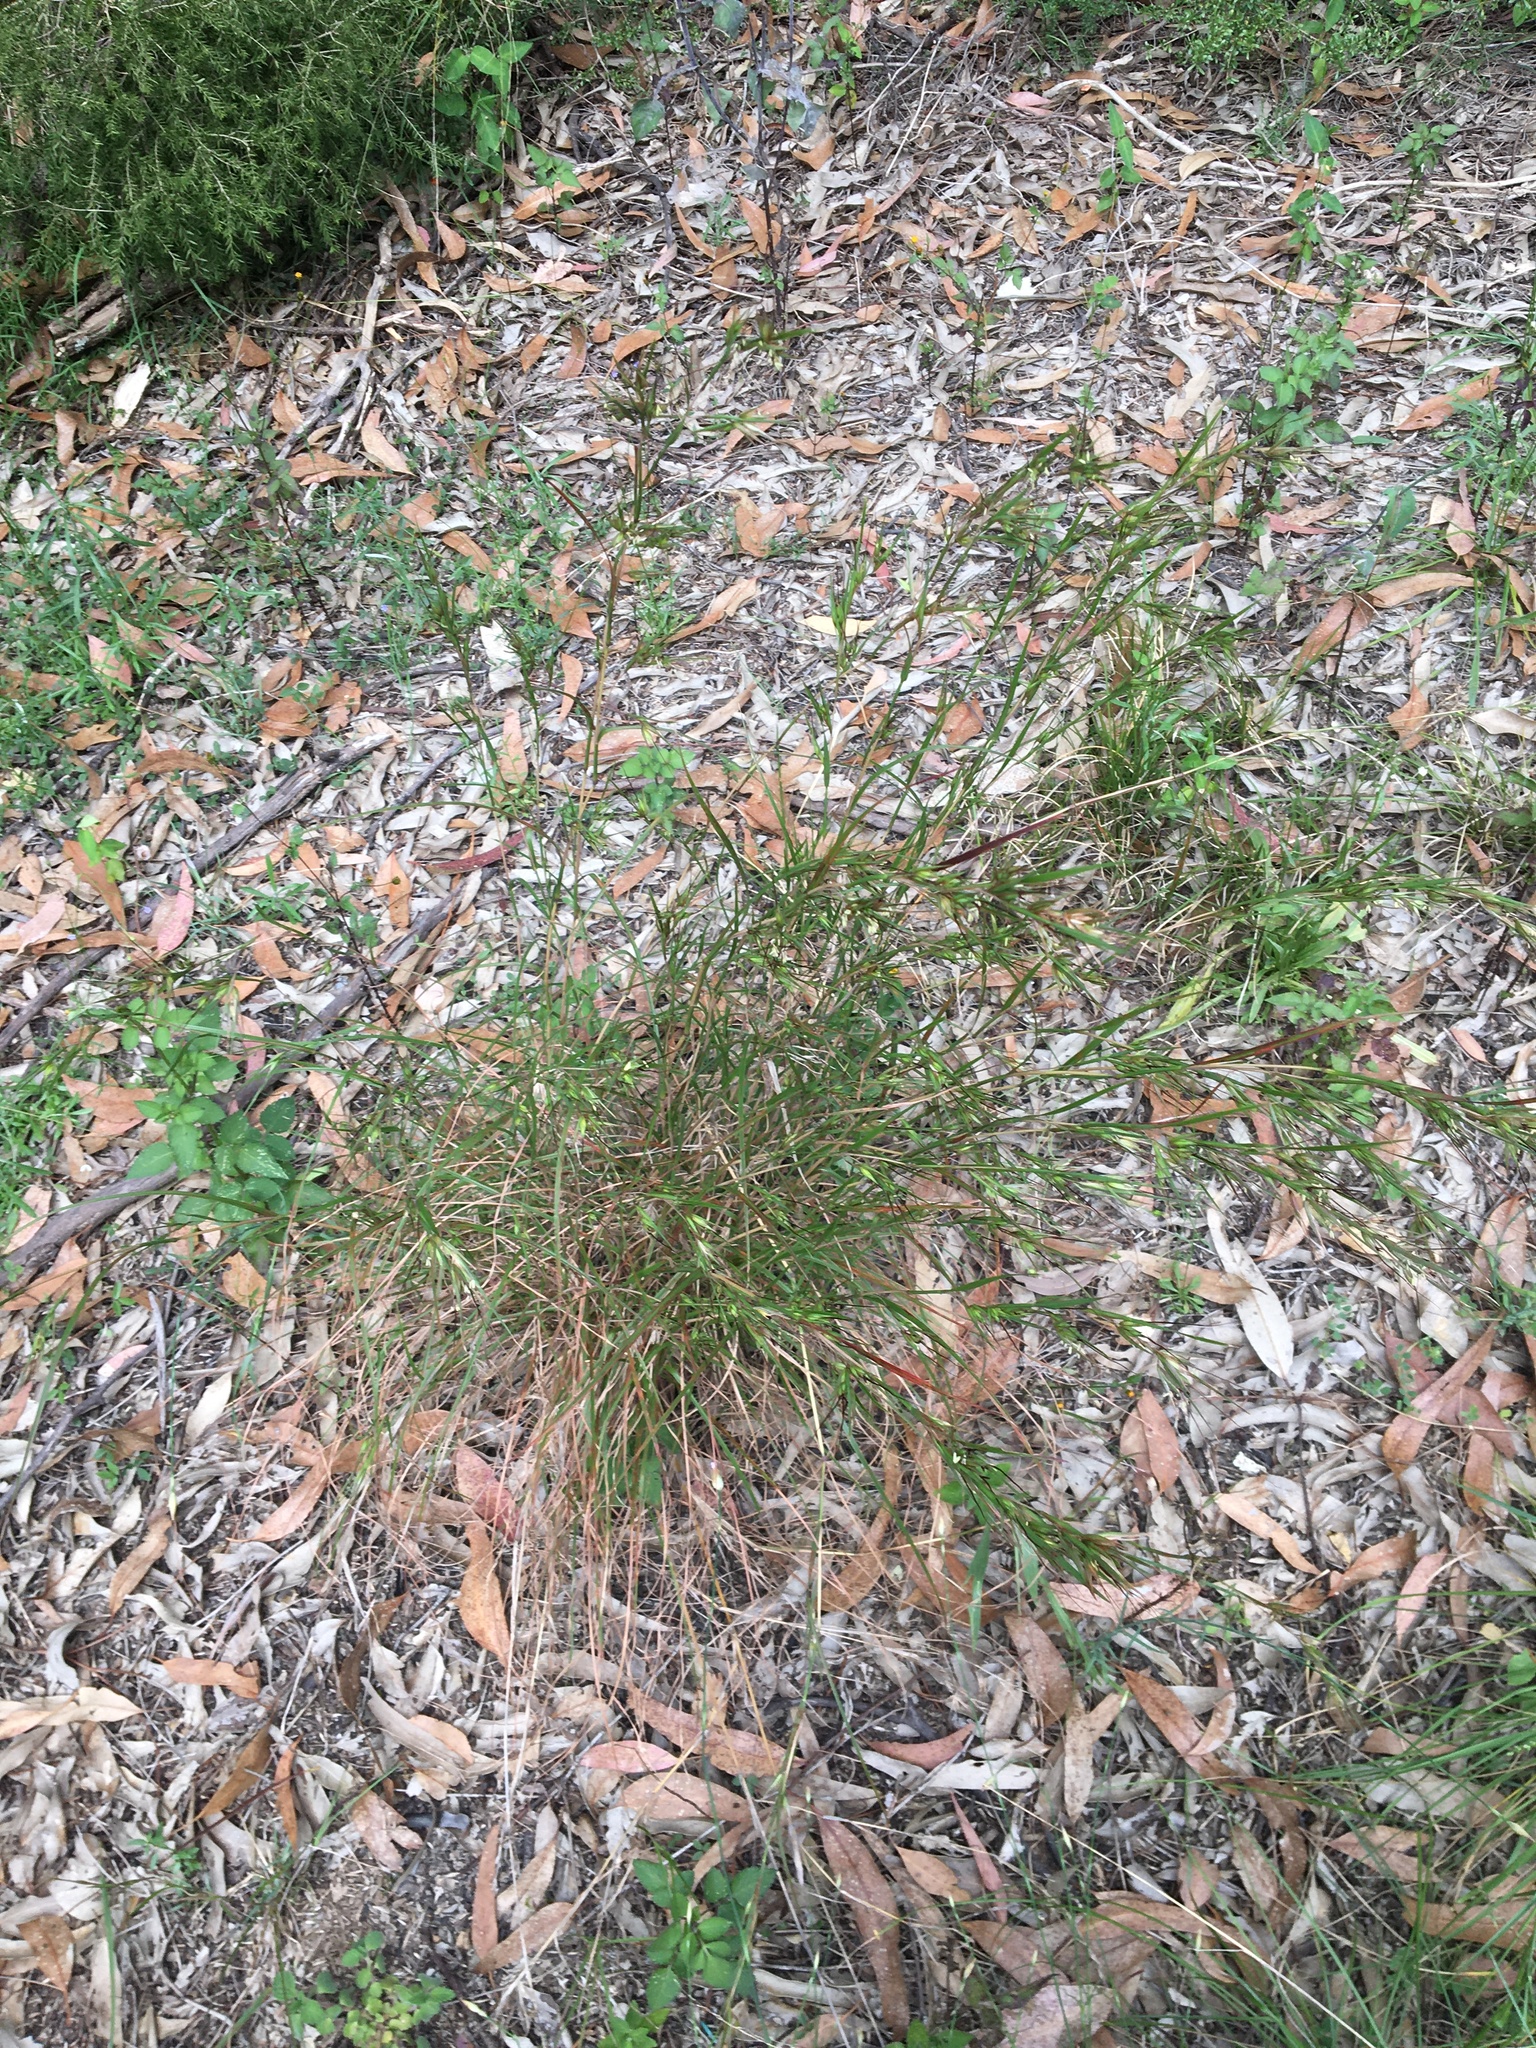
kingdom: Plantae
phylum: Tracheophyta
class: Liliopsida
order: Poales
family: Poaceae
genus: Themeda
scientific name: Themeda triandra
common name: Kangaroo grass
